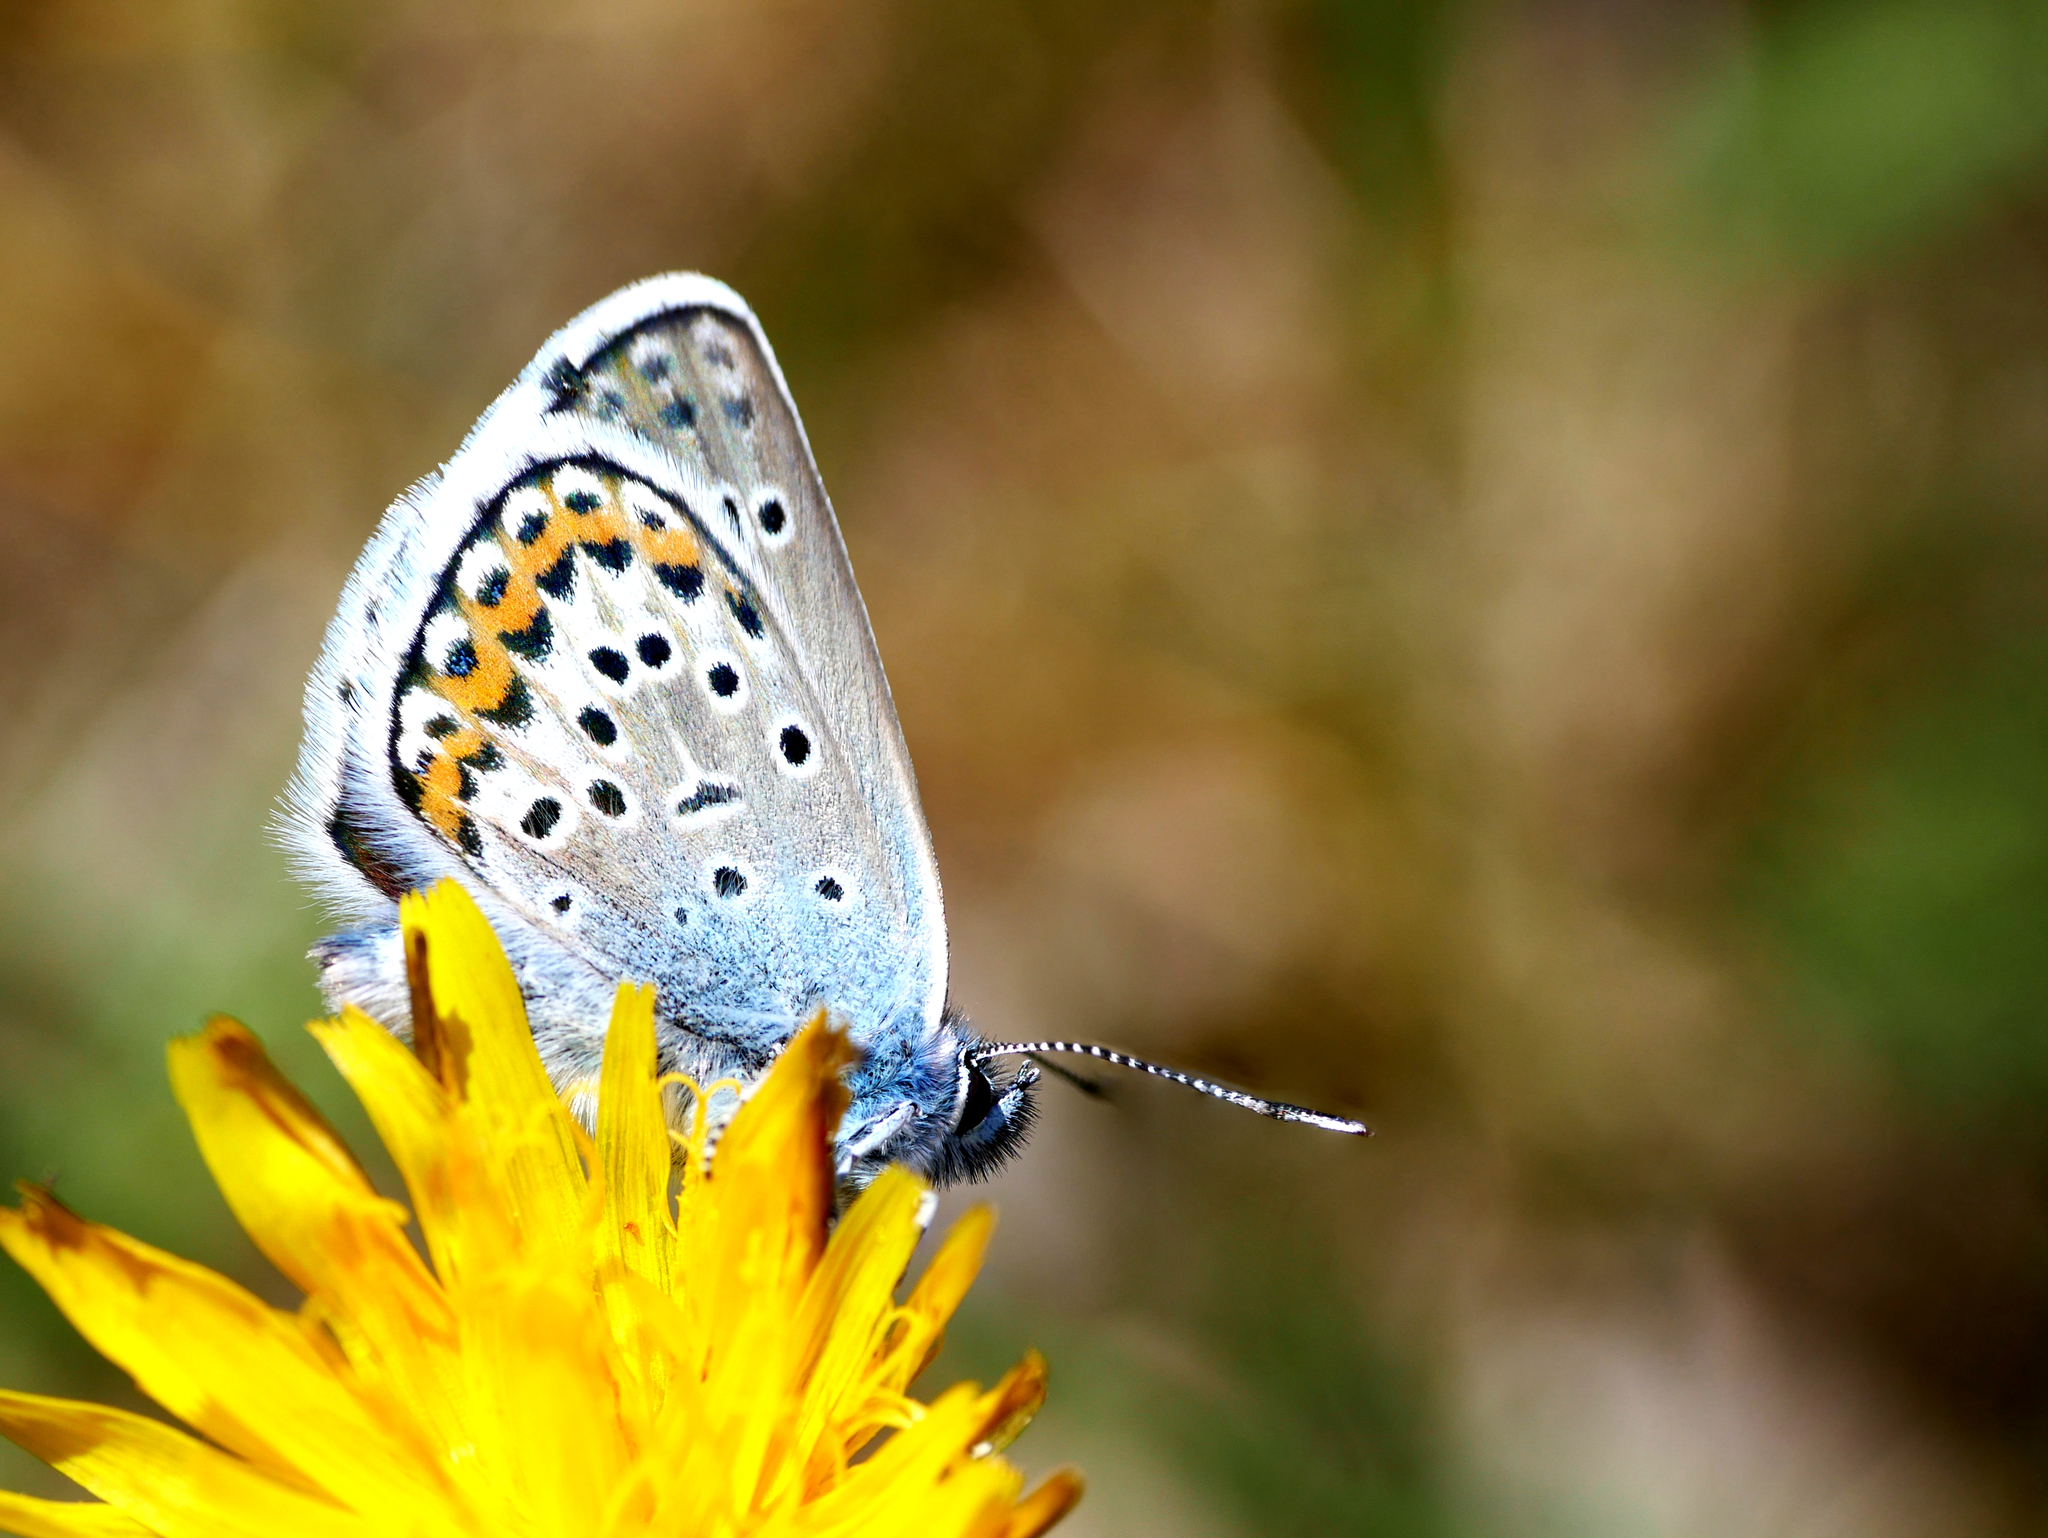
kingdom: Animalia
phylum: Arthropoda
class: Insecta
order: Lepidoptera
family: Lycaenidae
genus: Plebejus
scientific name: Plebejus argus
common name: Silver-studded blue
